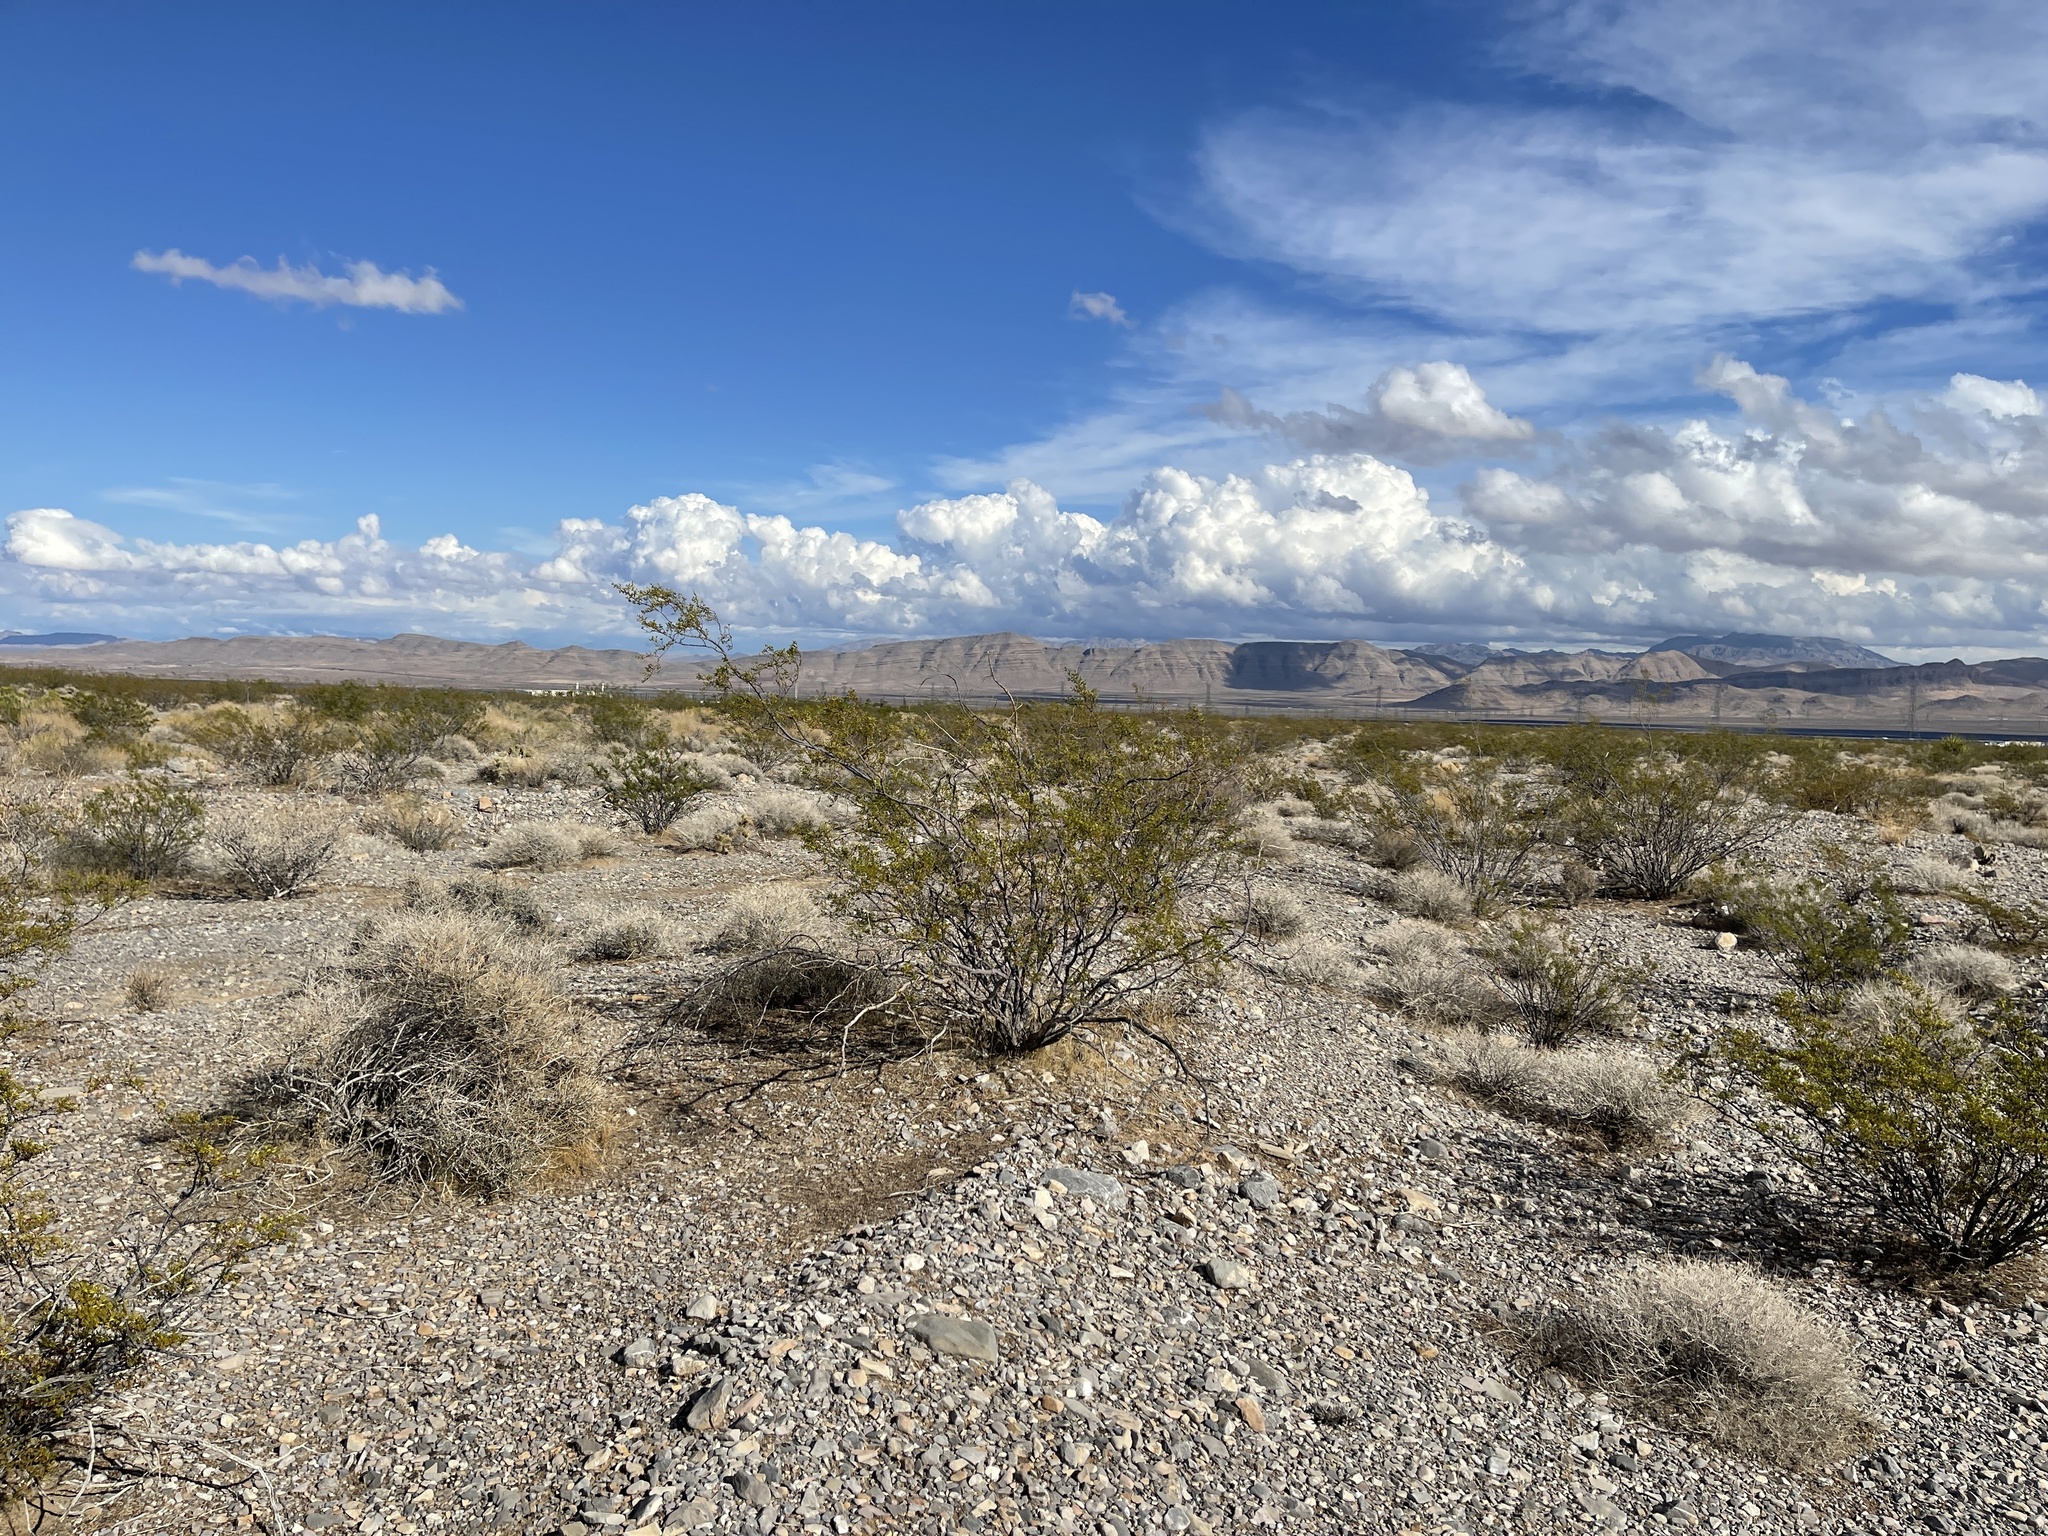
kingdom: Plantae
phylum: Tracheophyta
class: Magnoliopsida
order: Zygophyllales
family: Zygophyllaceae
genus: Larrea
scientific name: Larrea tridentata
